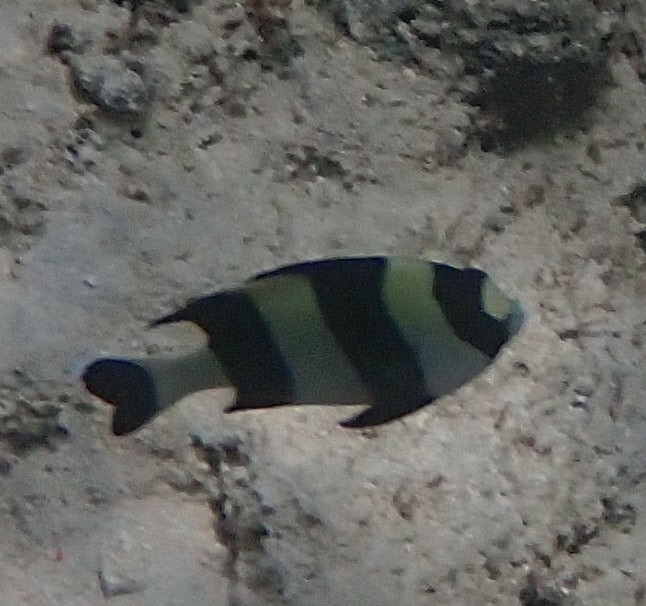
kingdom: Animalia
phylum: Chordata
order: Perciformes
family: Pomacentridae
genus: Dascyllus
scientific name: Dascyllus melanurus
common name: Black-tail dascyllus
